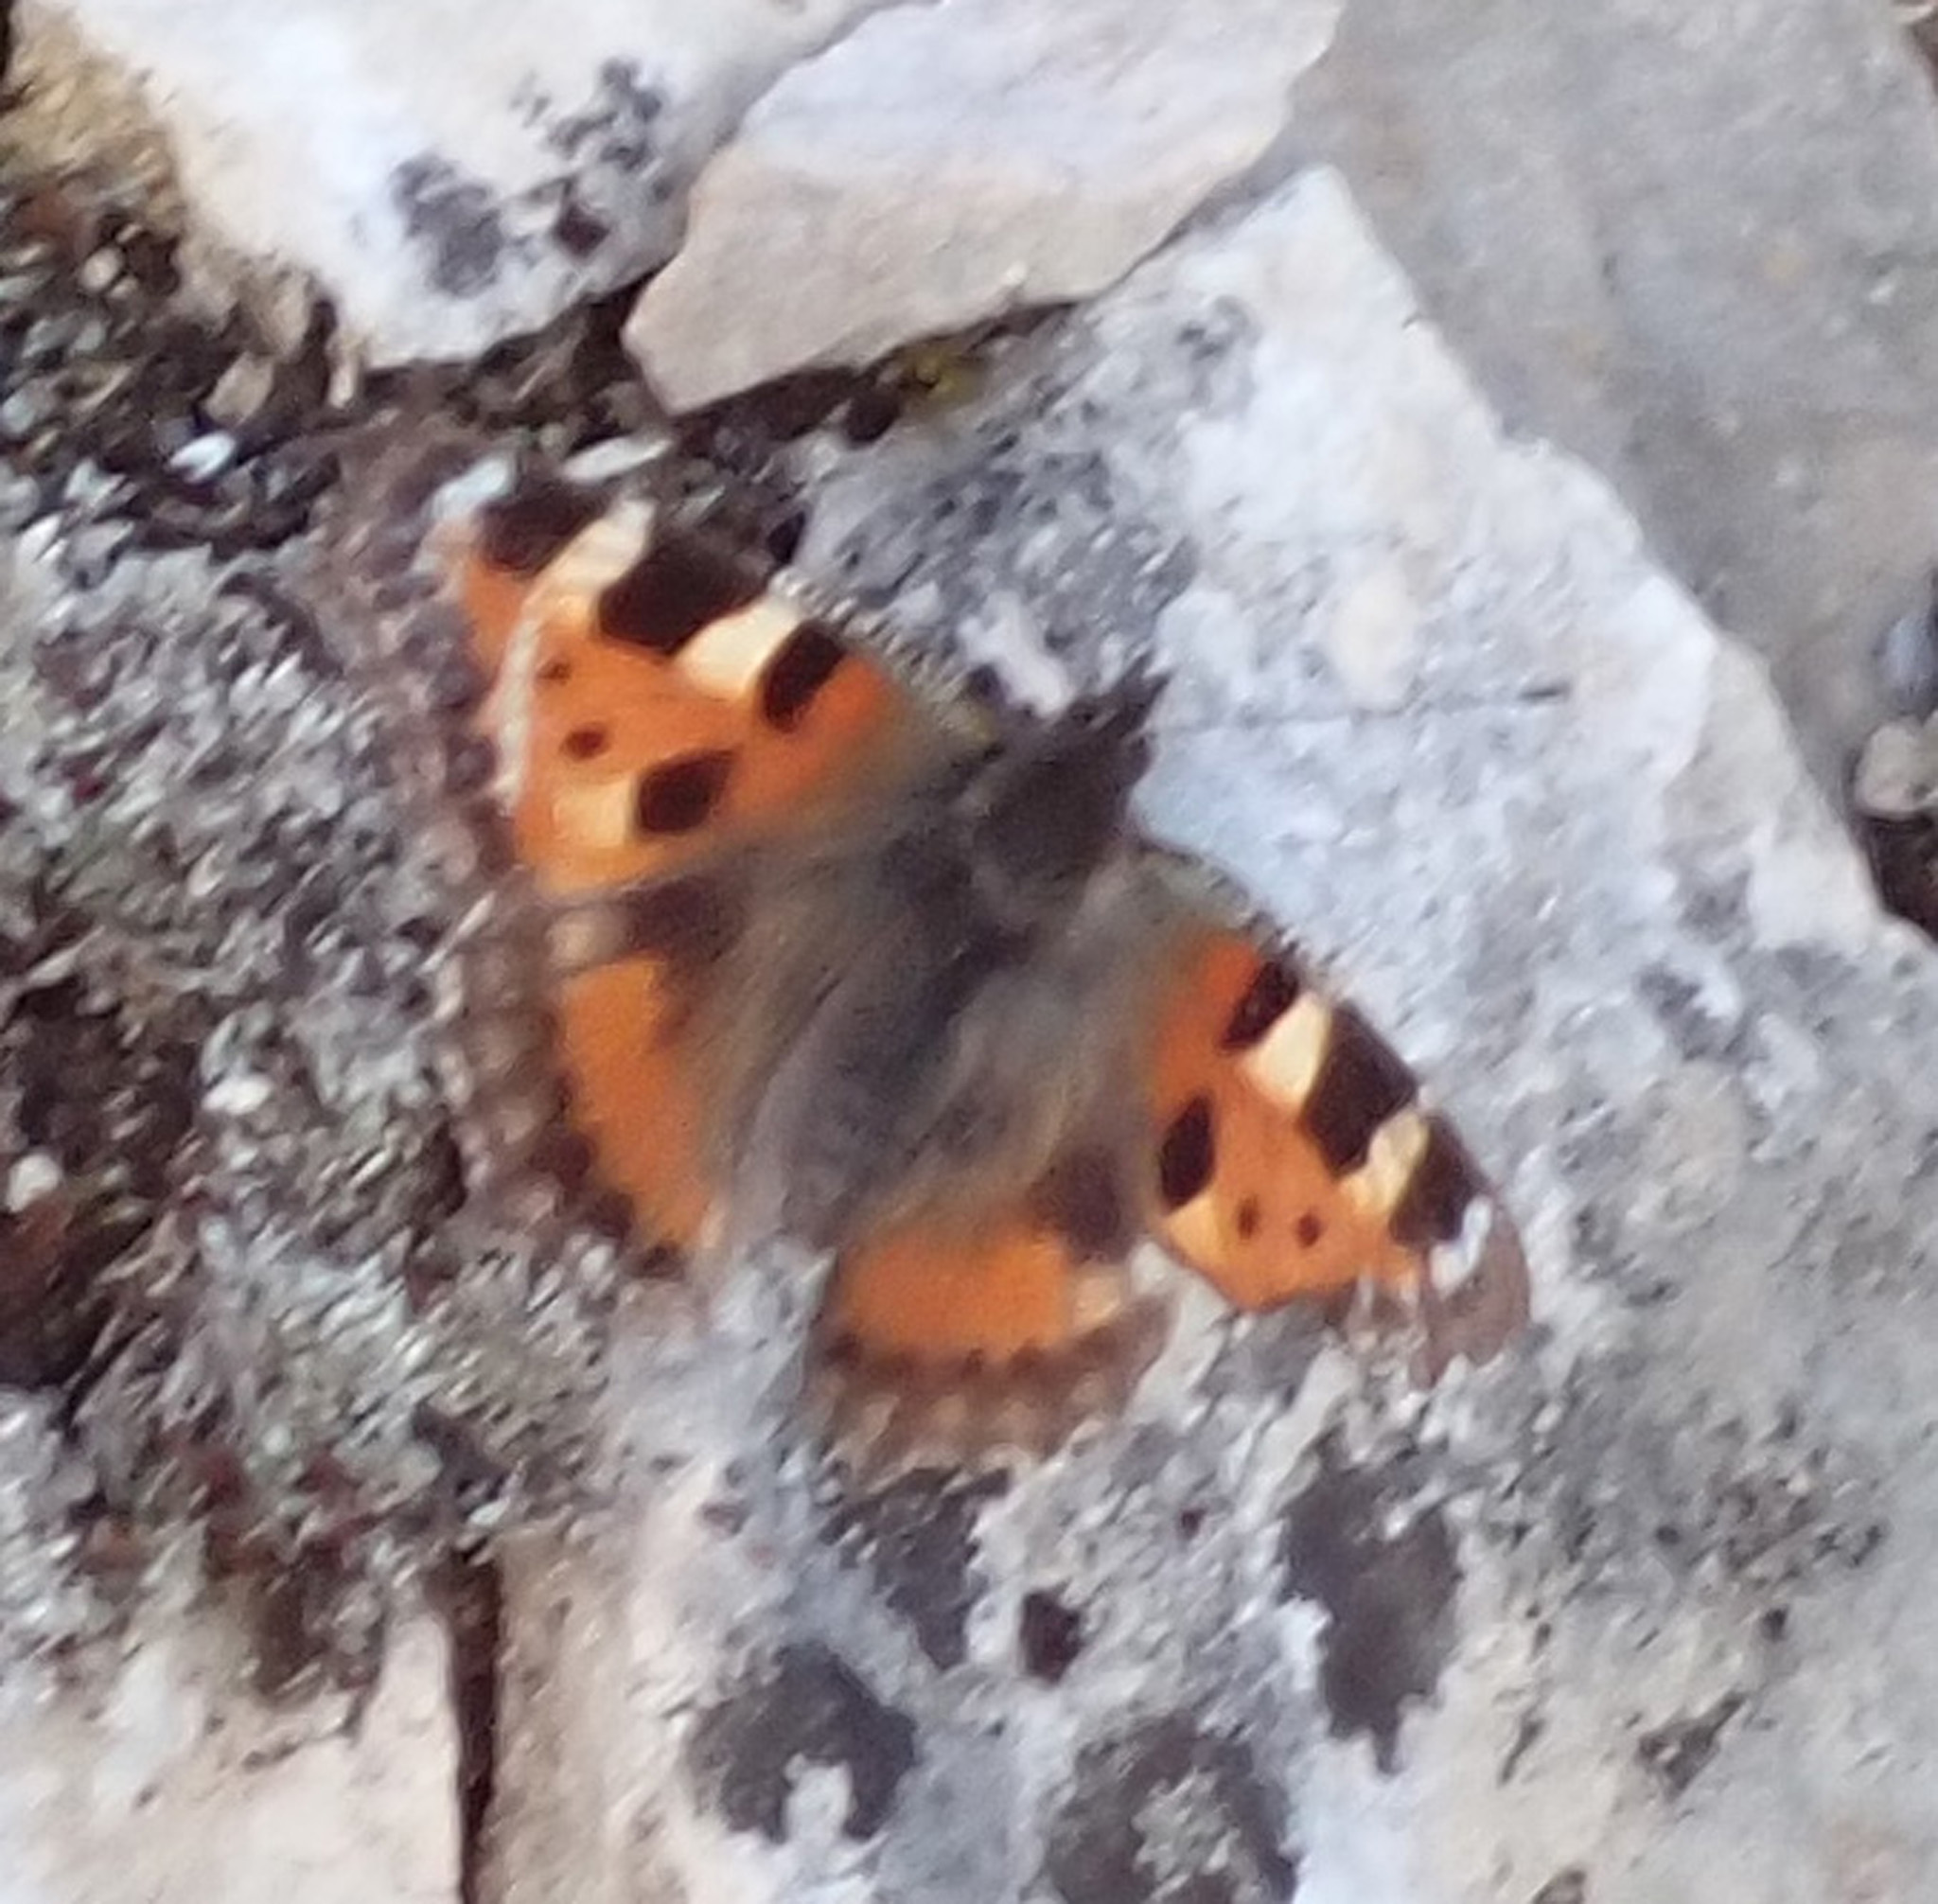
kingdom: Animalia
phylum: Arthropoda
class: Insecta
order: Lepidoptera
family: Nymphalidae
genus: Aglais
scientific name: Aglais urticae
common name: Small tortoiseshell
